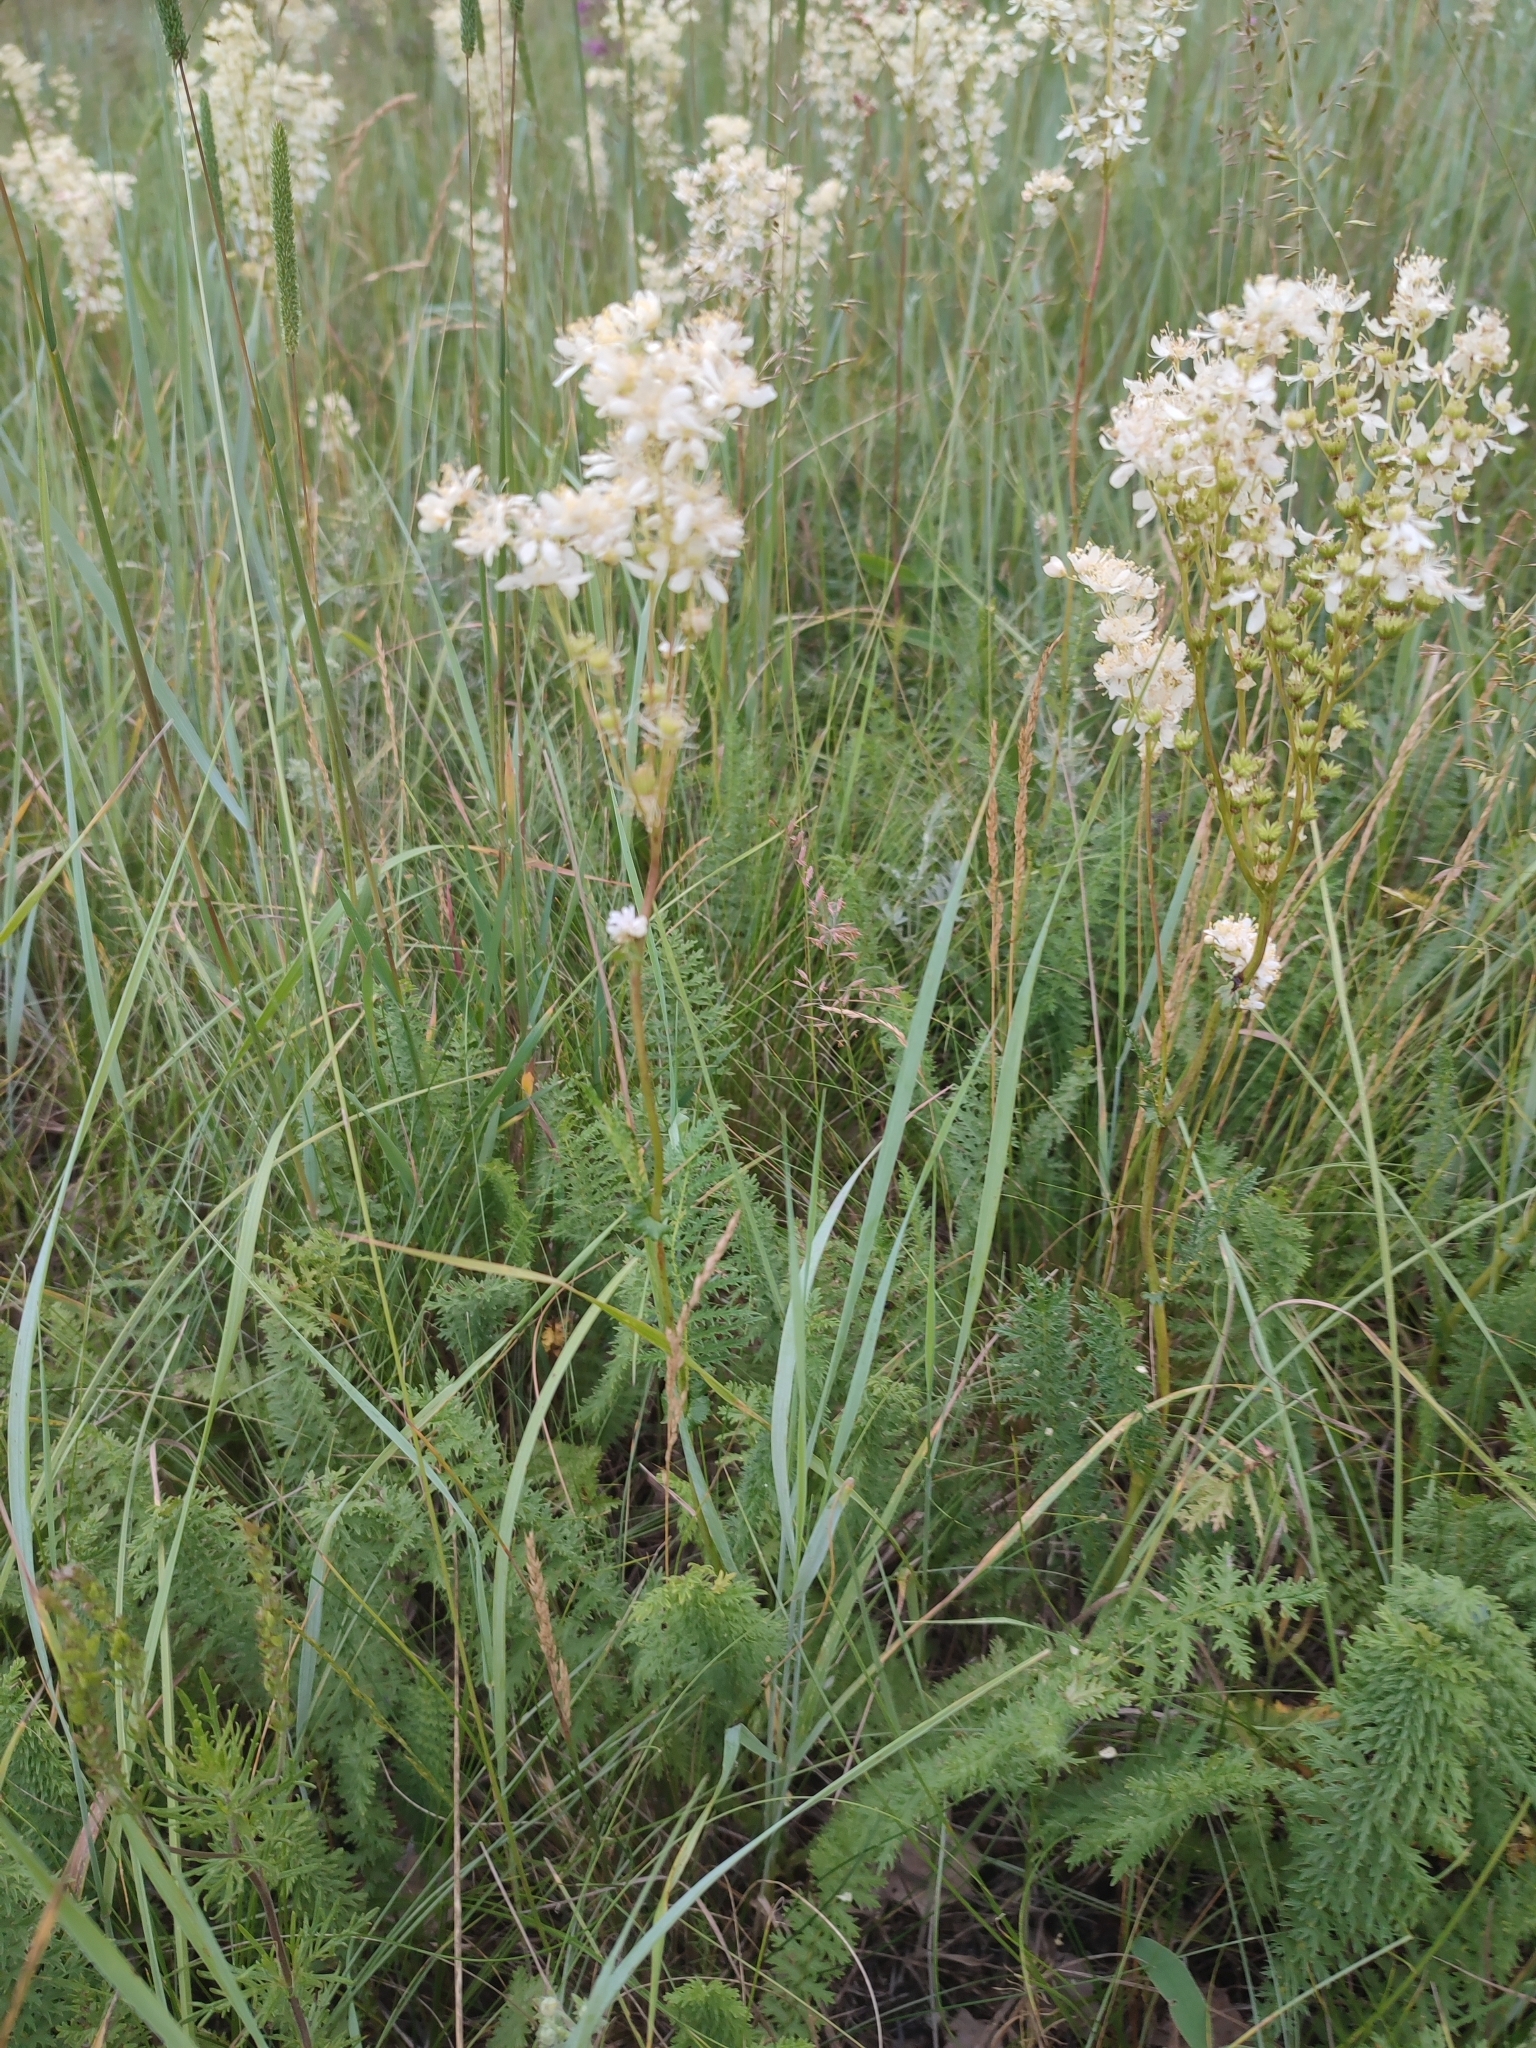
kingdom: Plantae
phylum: Tracheophyta
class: Magnoliopsida
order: Rosales
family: Rosaceae
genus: Filipendula
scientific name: Filipendula vulgaris
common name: Dropwort
